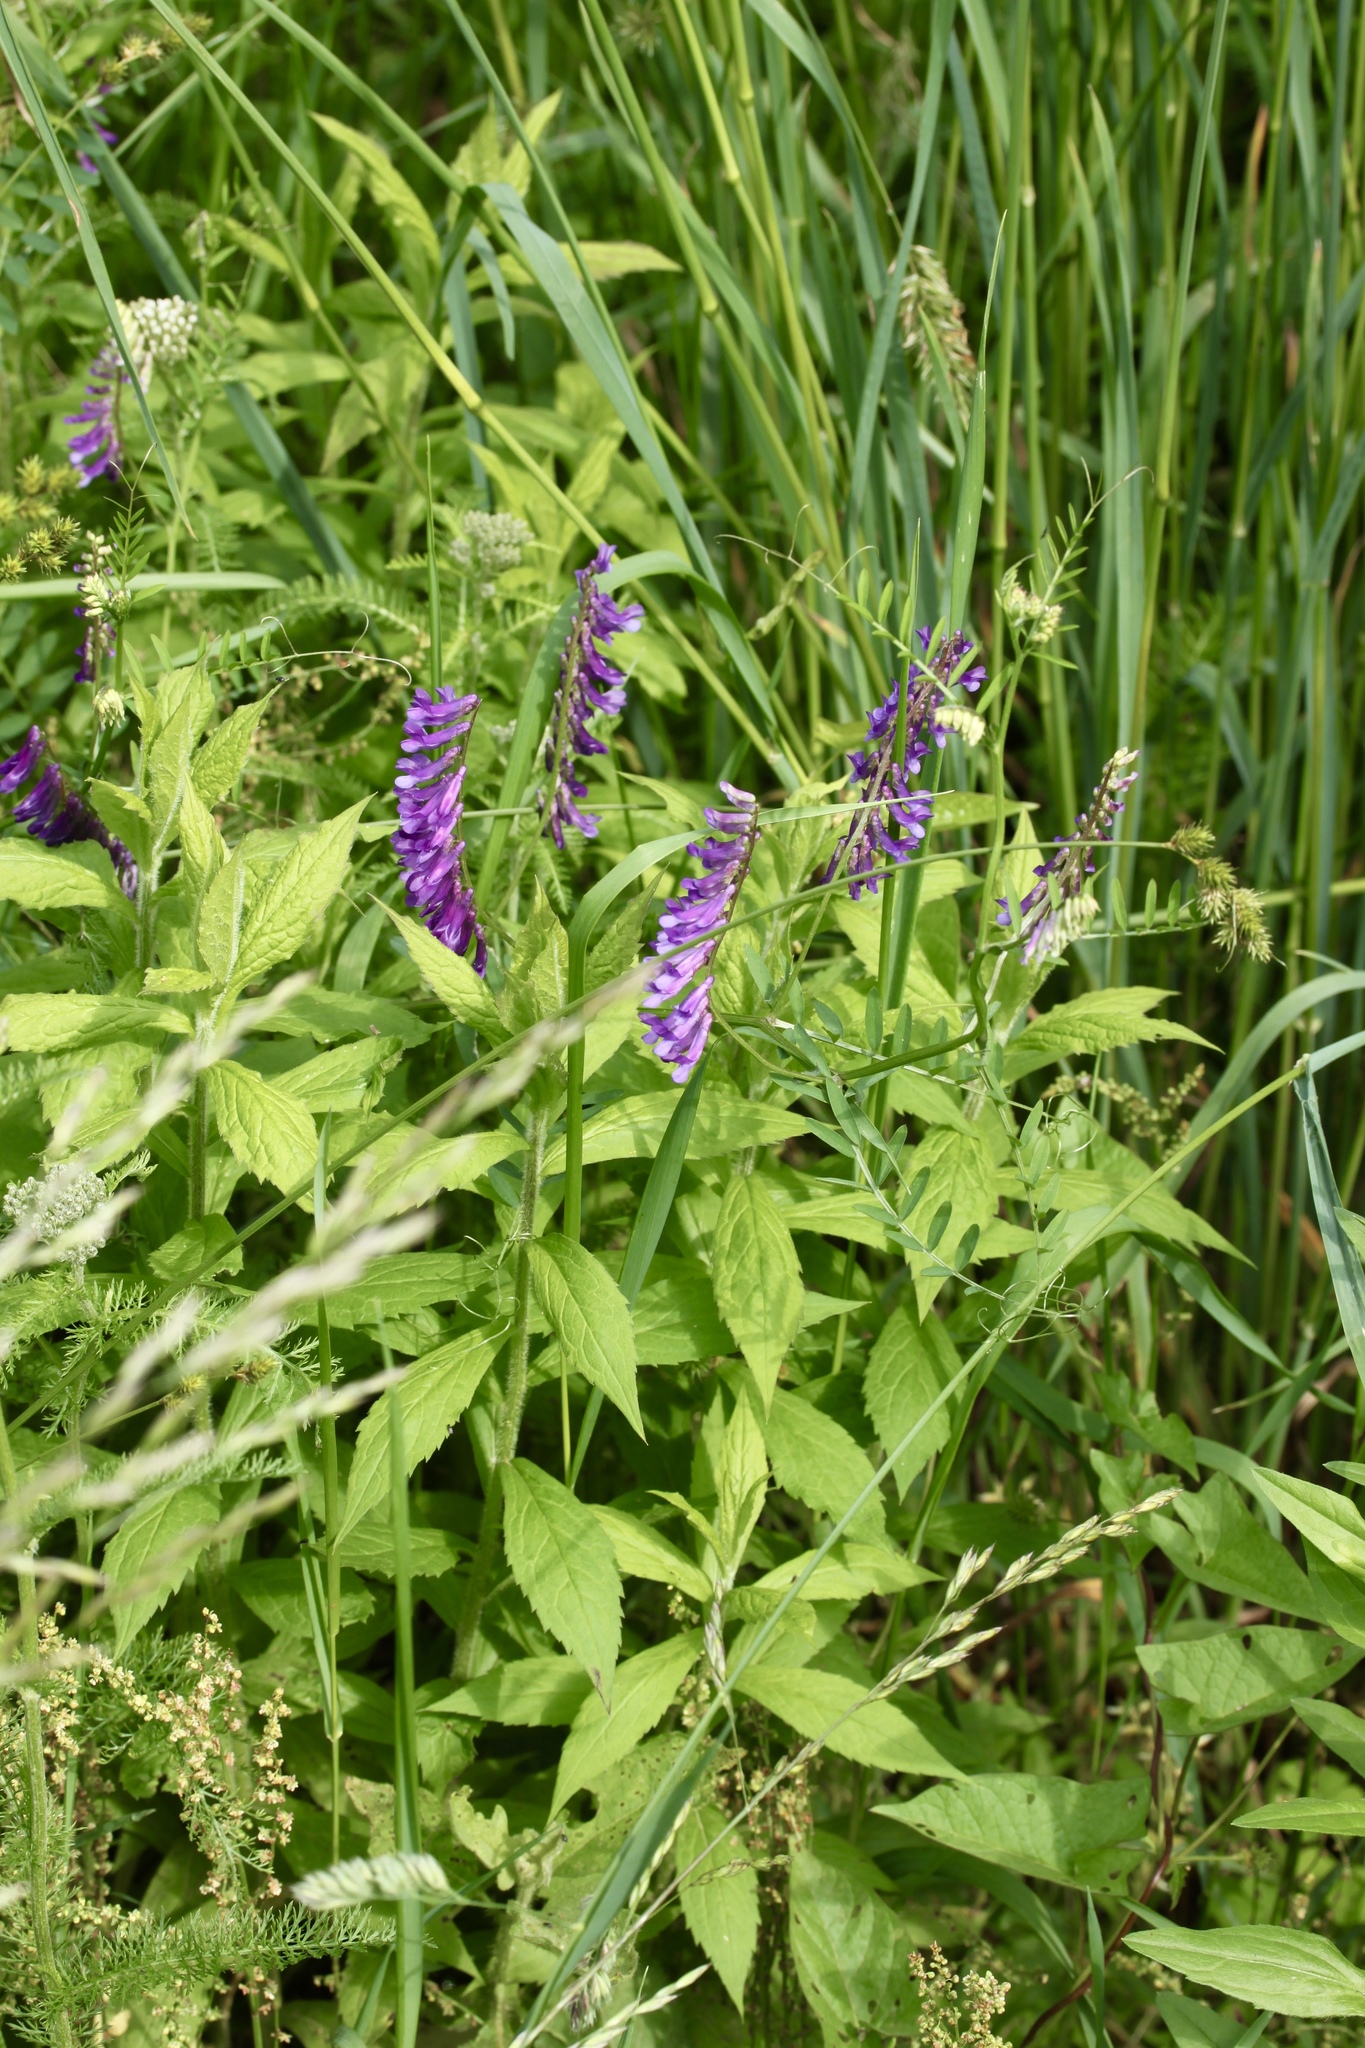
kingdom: Plantae
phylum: Tracheophyta
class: Magnoliopsida
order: Fabales
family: Fabaceae
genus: Vicia
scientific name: Vicia villosa
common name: Fodder vetch
